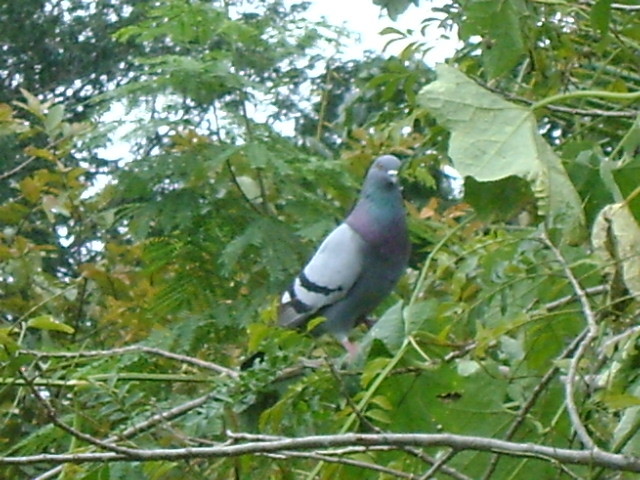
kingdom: Animalia
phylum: Chordata
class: Aves
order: Columbiformes
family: Columbidae
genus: Columba
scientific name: Columba livia
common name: Rock pigeon
